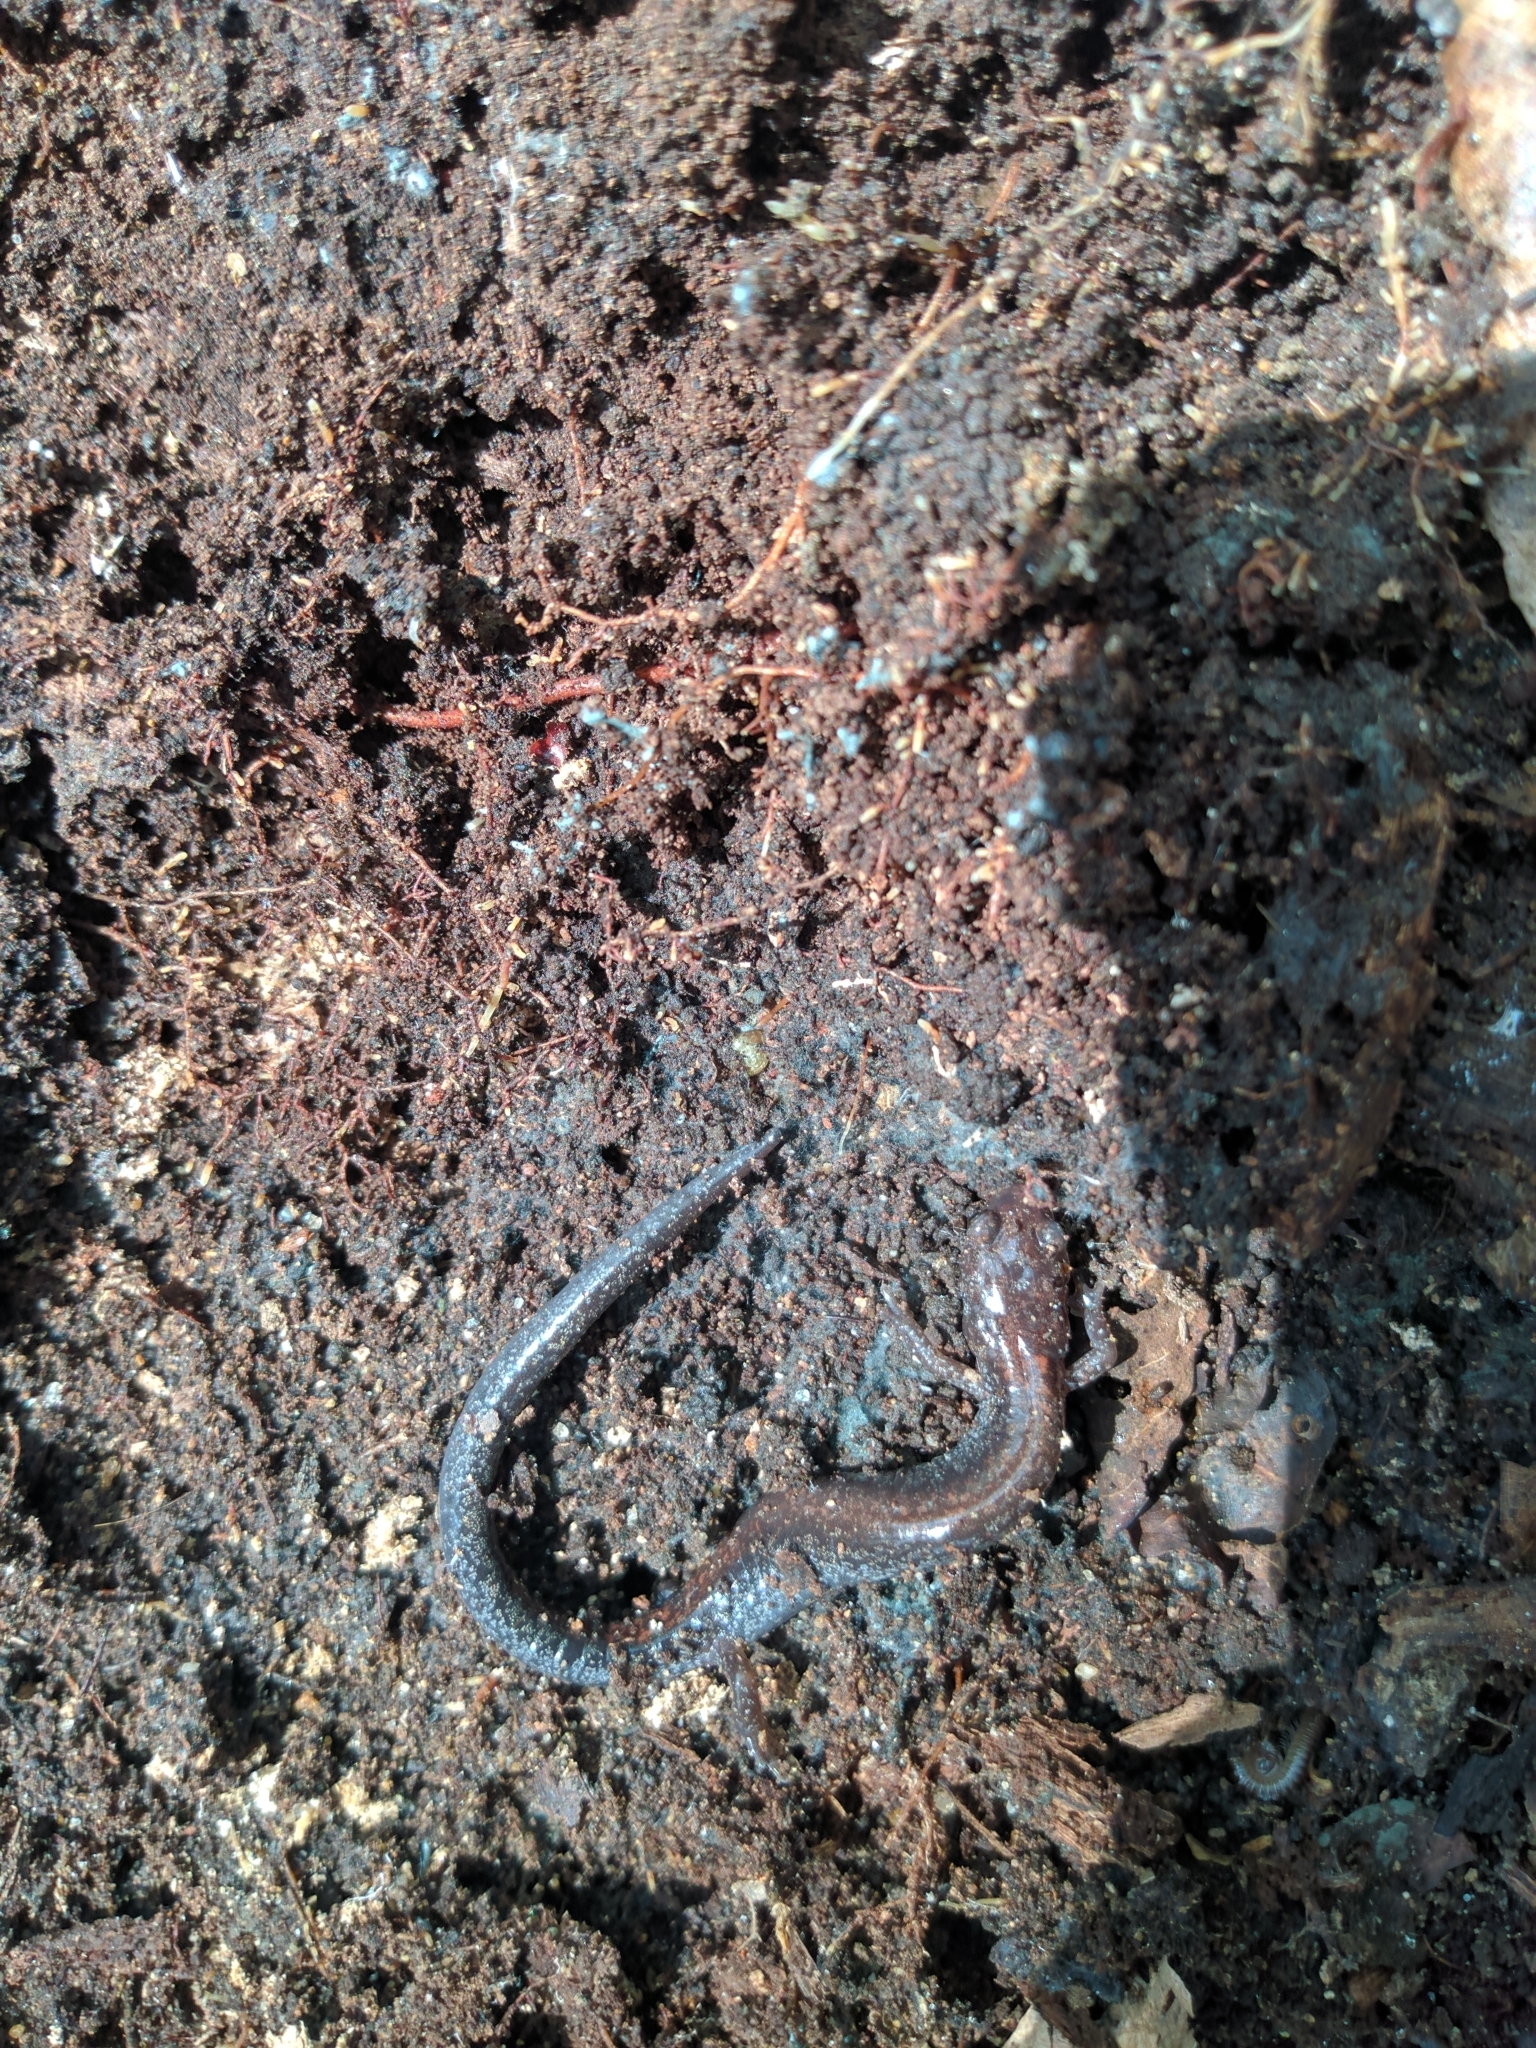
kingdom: Animalia
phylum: Chordata
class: Amphibia
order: Caudata
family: Plethodontidae
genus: Plethodon
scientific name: Plethodon cinereus
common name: Redback salamander
